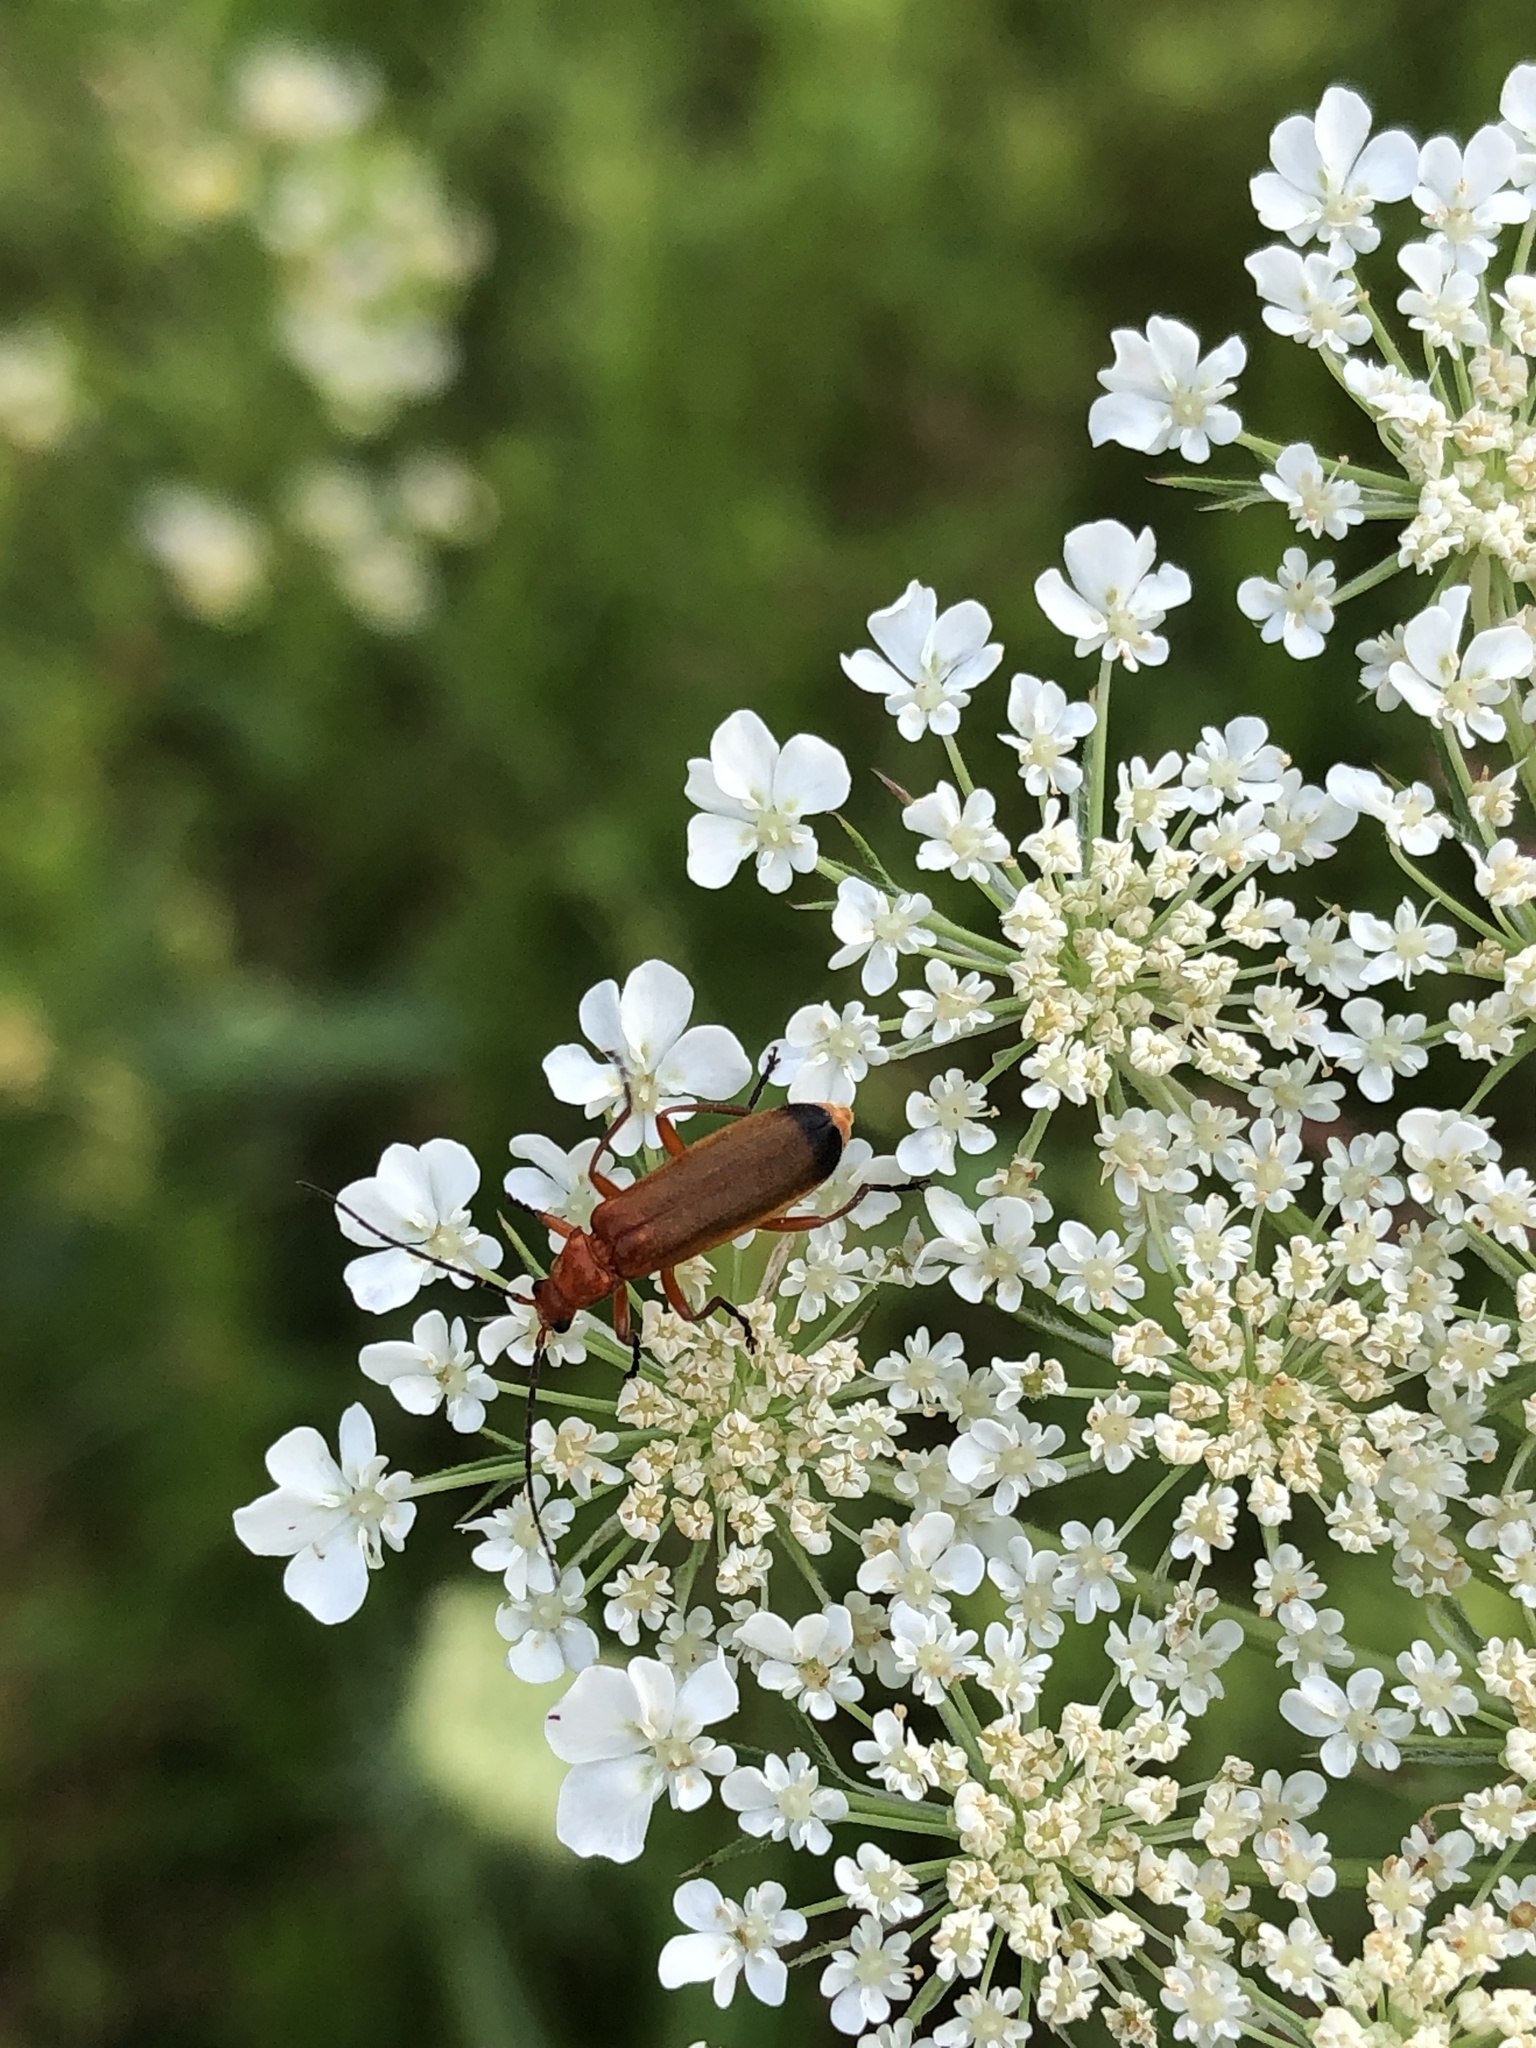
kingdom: Animalia
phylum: Arthropoda
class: Insecta
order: Coleoptera
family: Cantharidae
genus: Rhagonycha
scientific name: Rhagonycha fulva
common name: Common red soldier beetle
